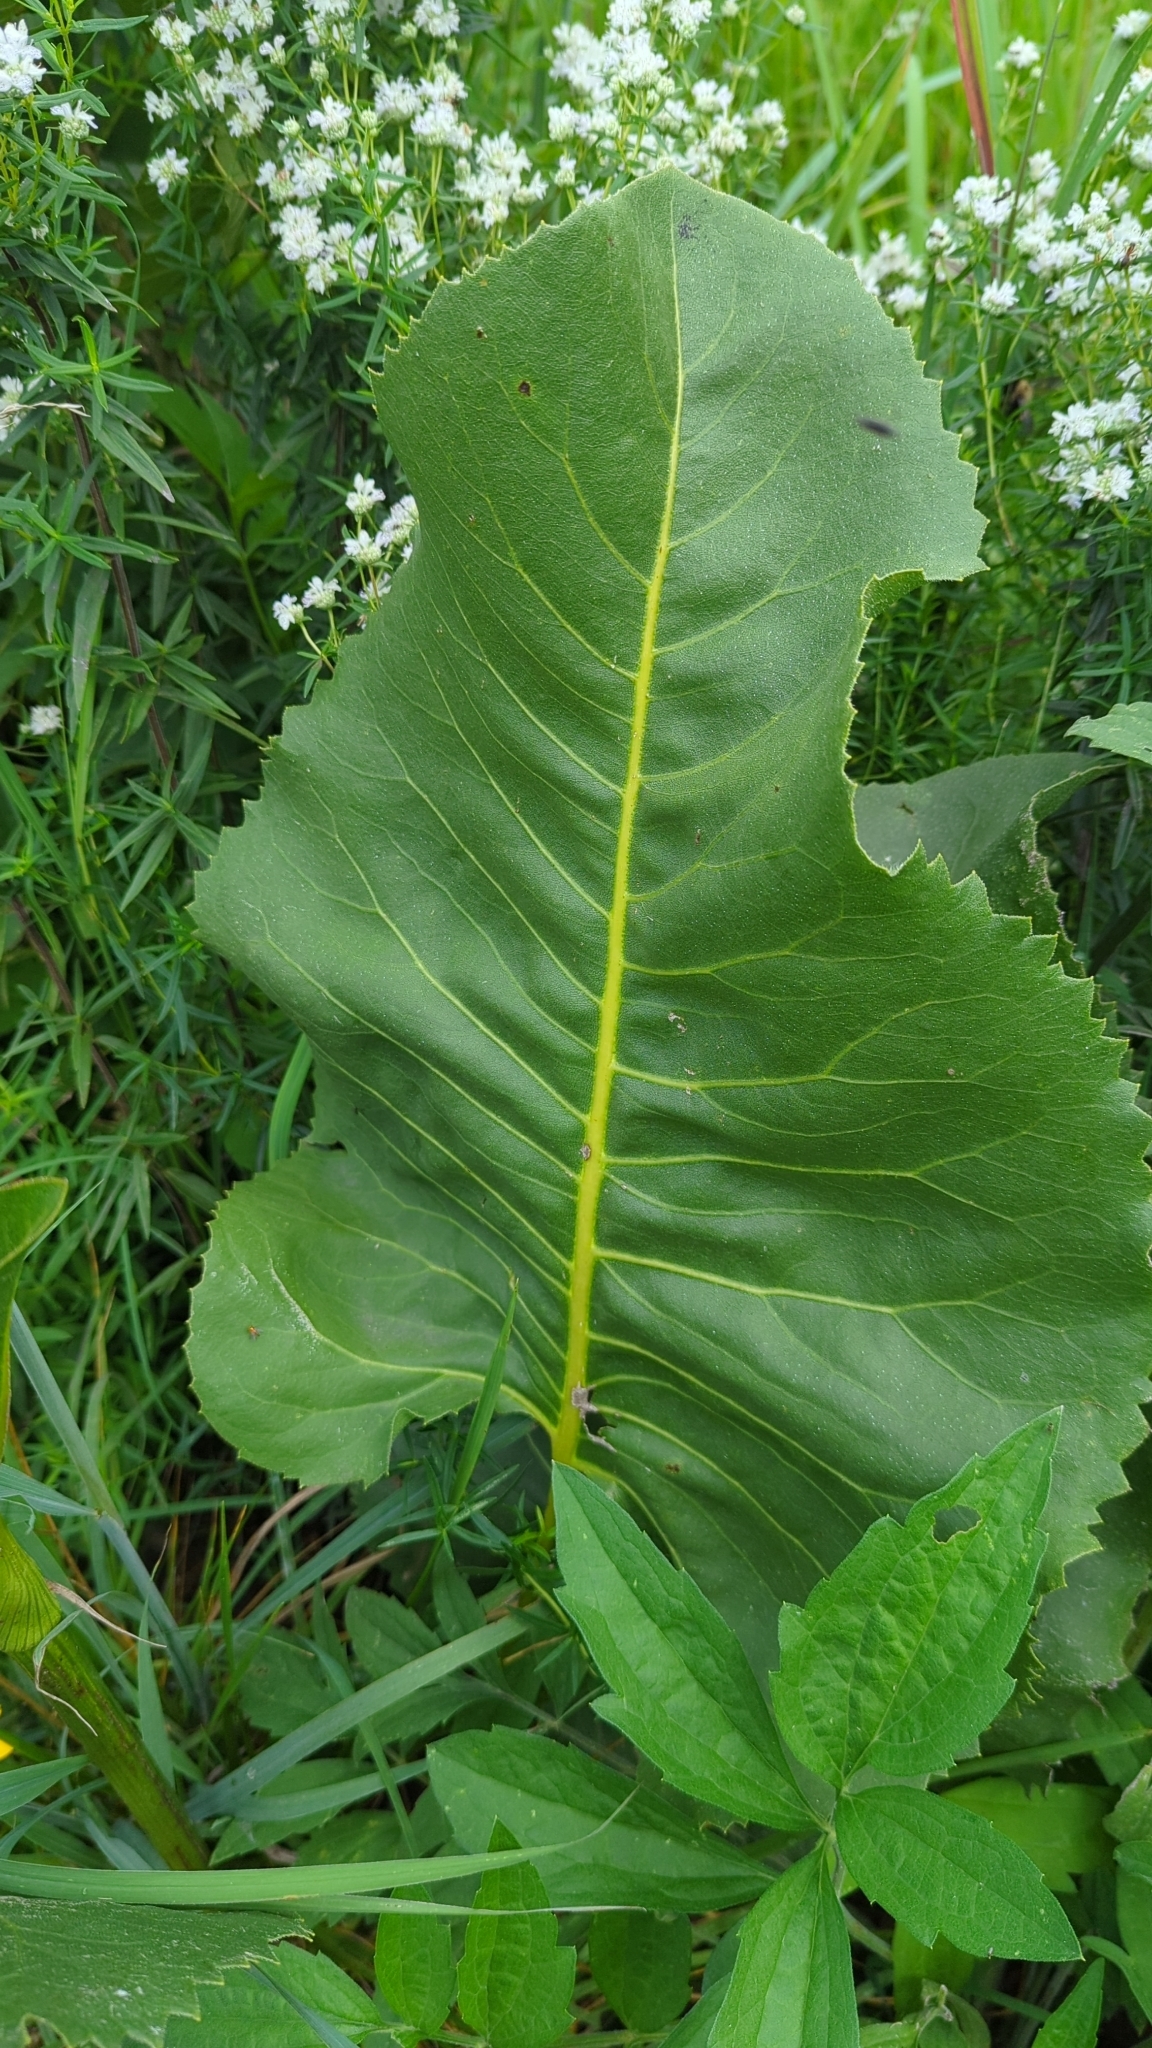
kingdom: Plantae
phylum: Tracheophyta
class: Magnoliopsida
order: Asterales
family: Asteraceae
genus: Silphium
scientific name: Silphium terebinthinaceum
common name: Basal-leaf rosinweed
